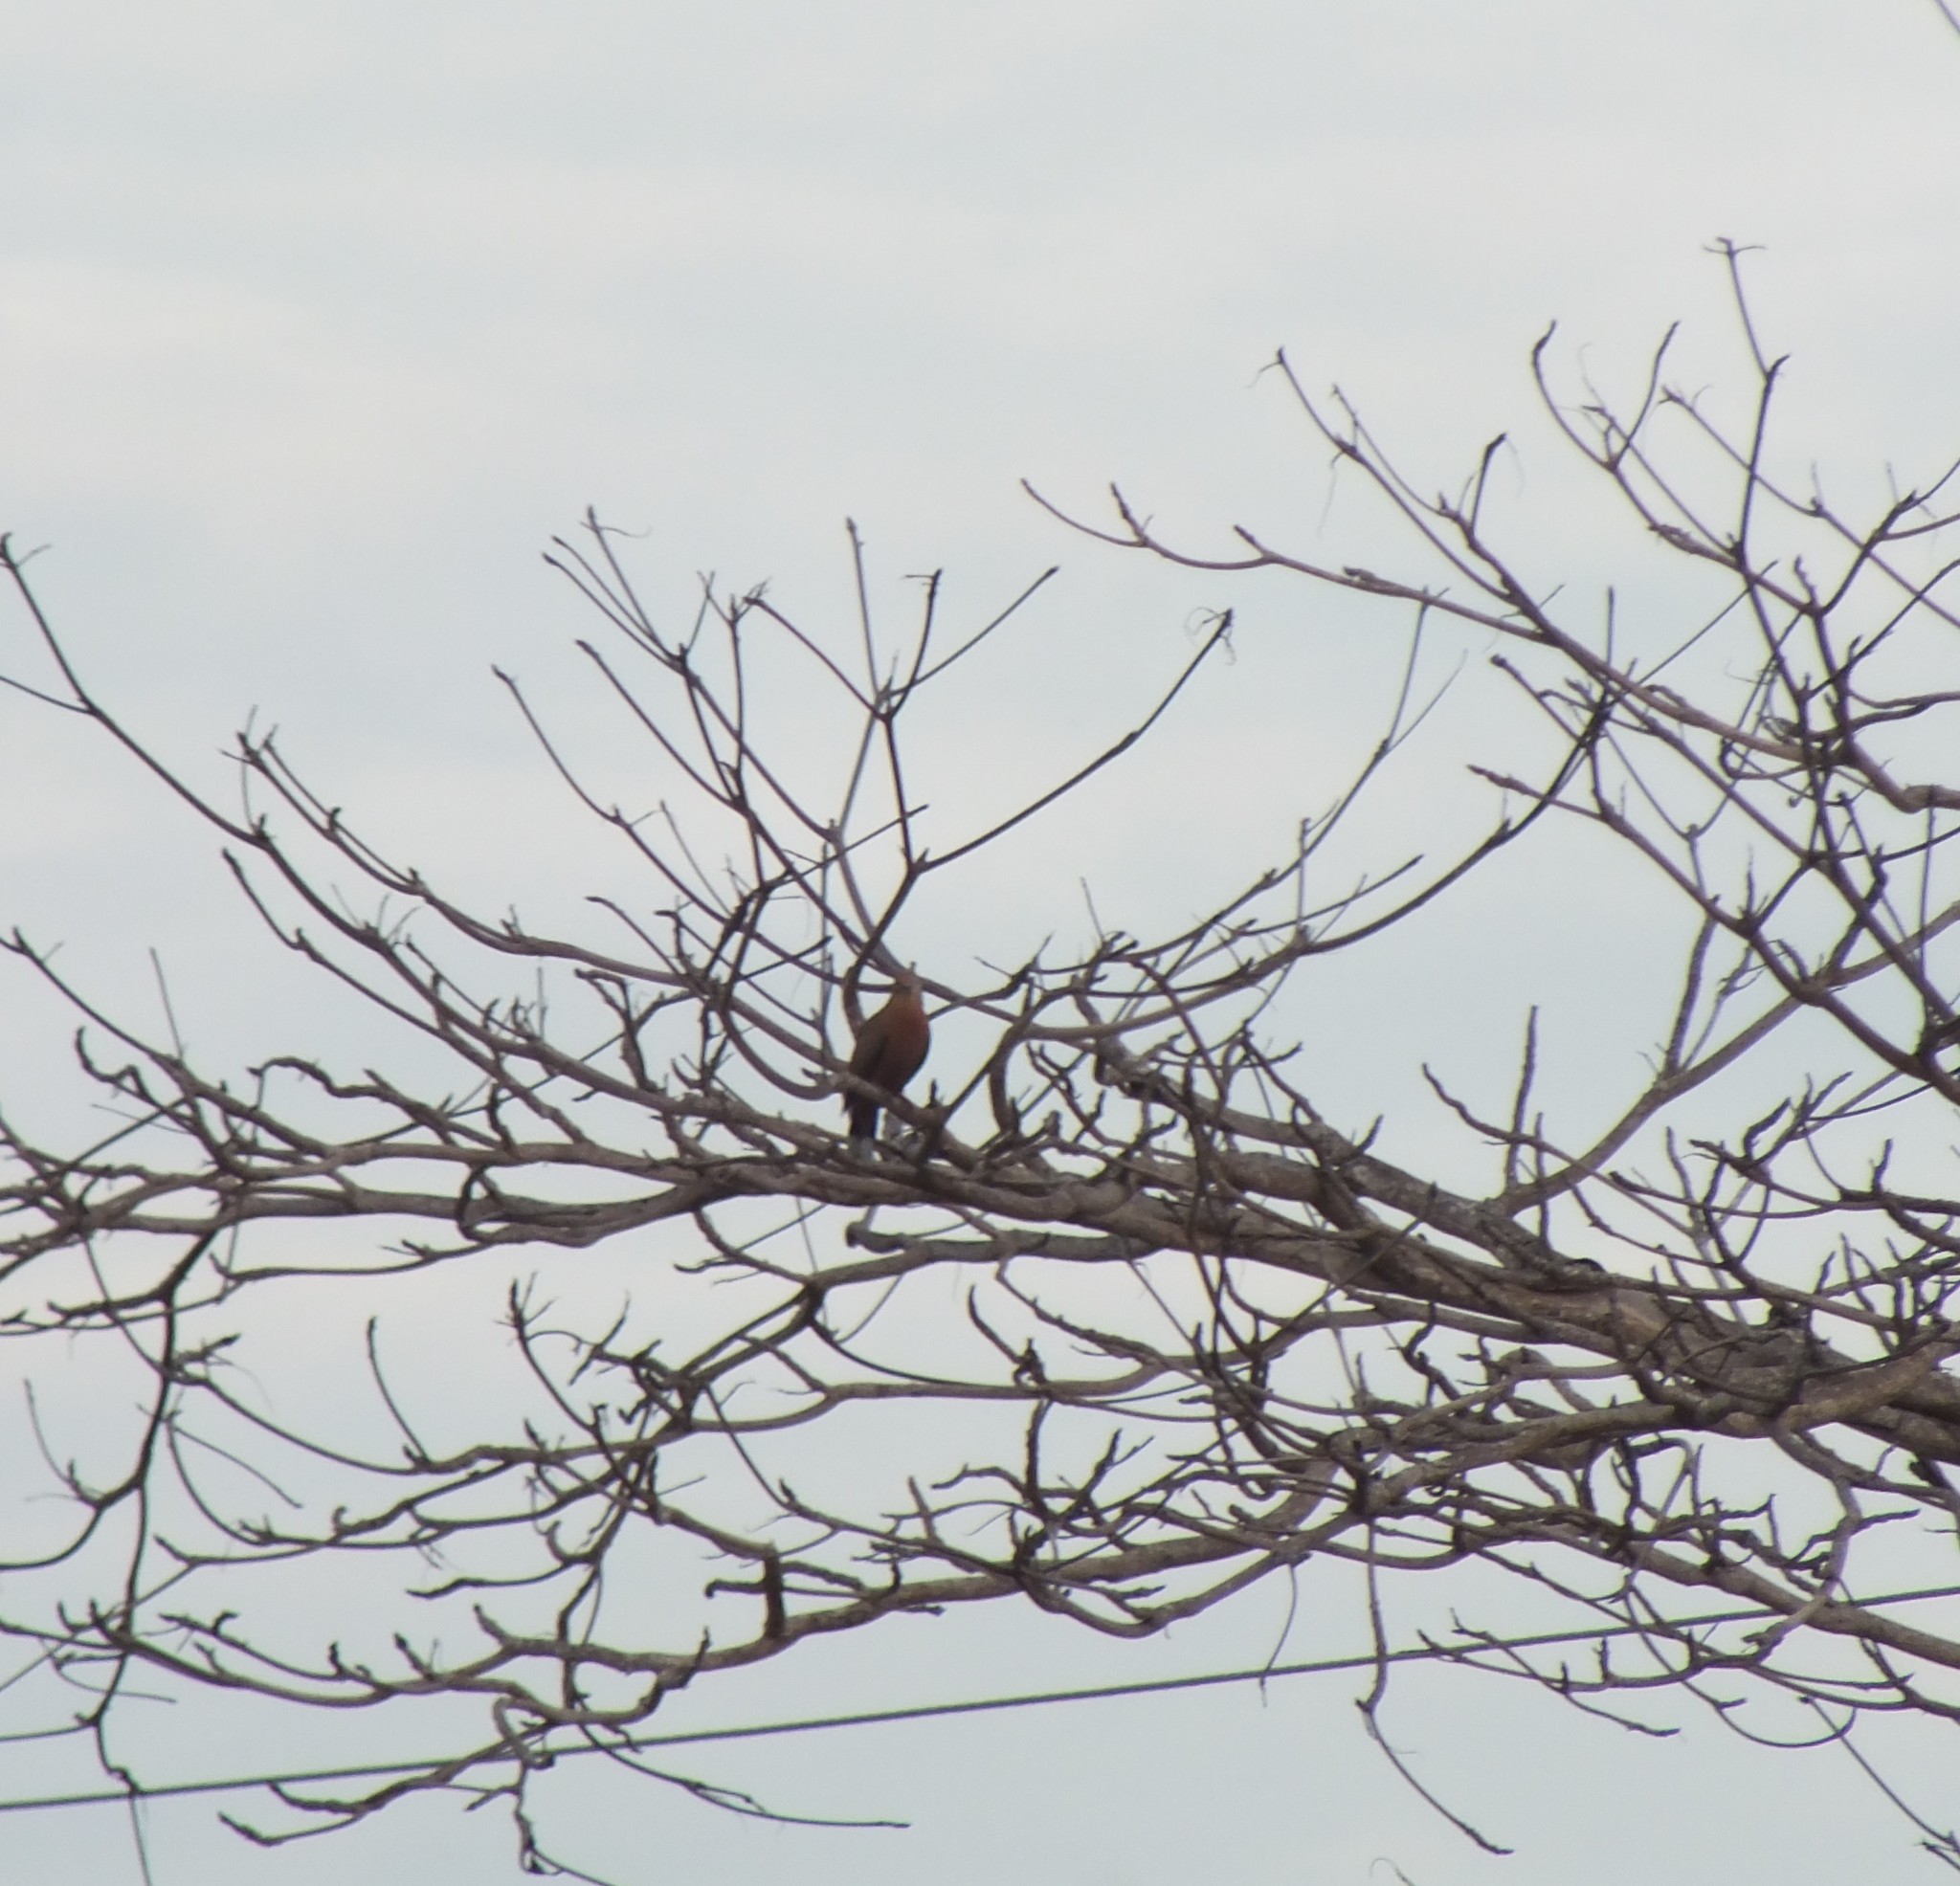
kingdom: Animalia
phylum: Chordata
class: Aves
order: Columbiformes
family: Columbidae
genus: Zenaida
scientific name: Zenaida aurita
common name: Zenaida dove
